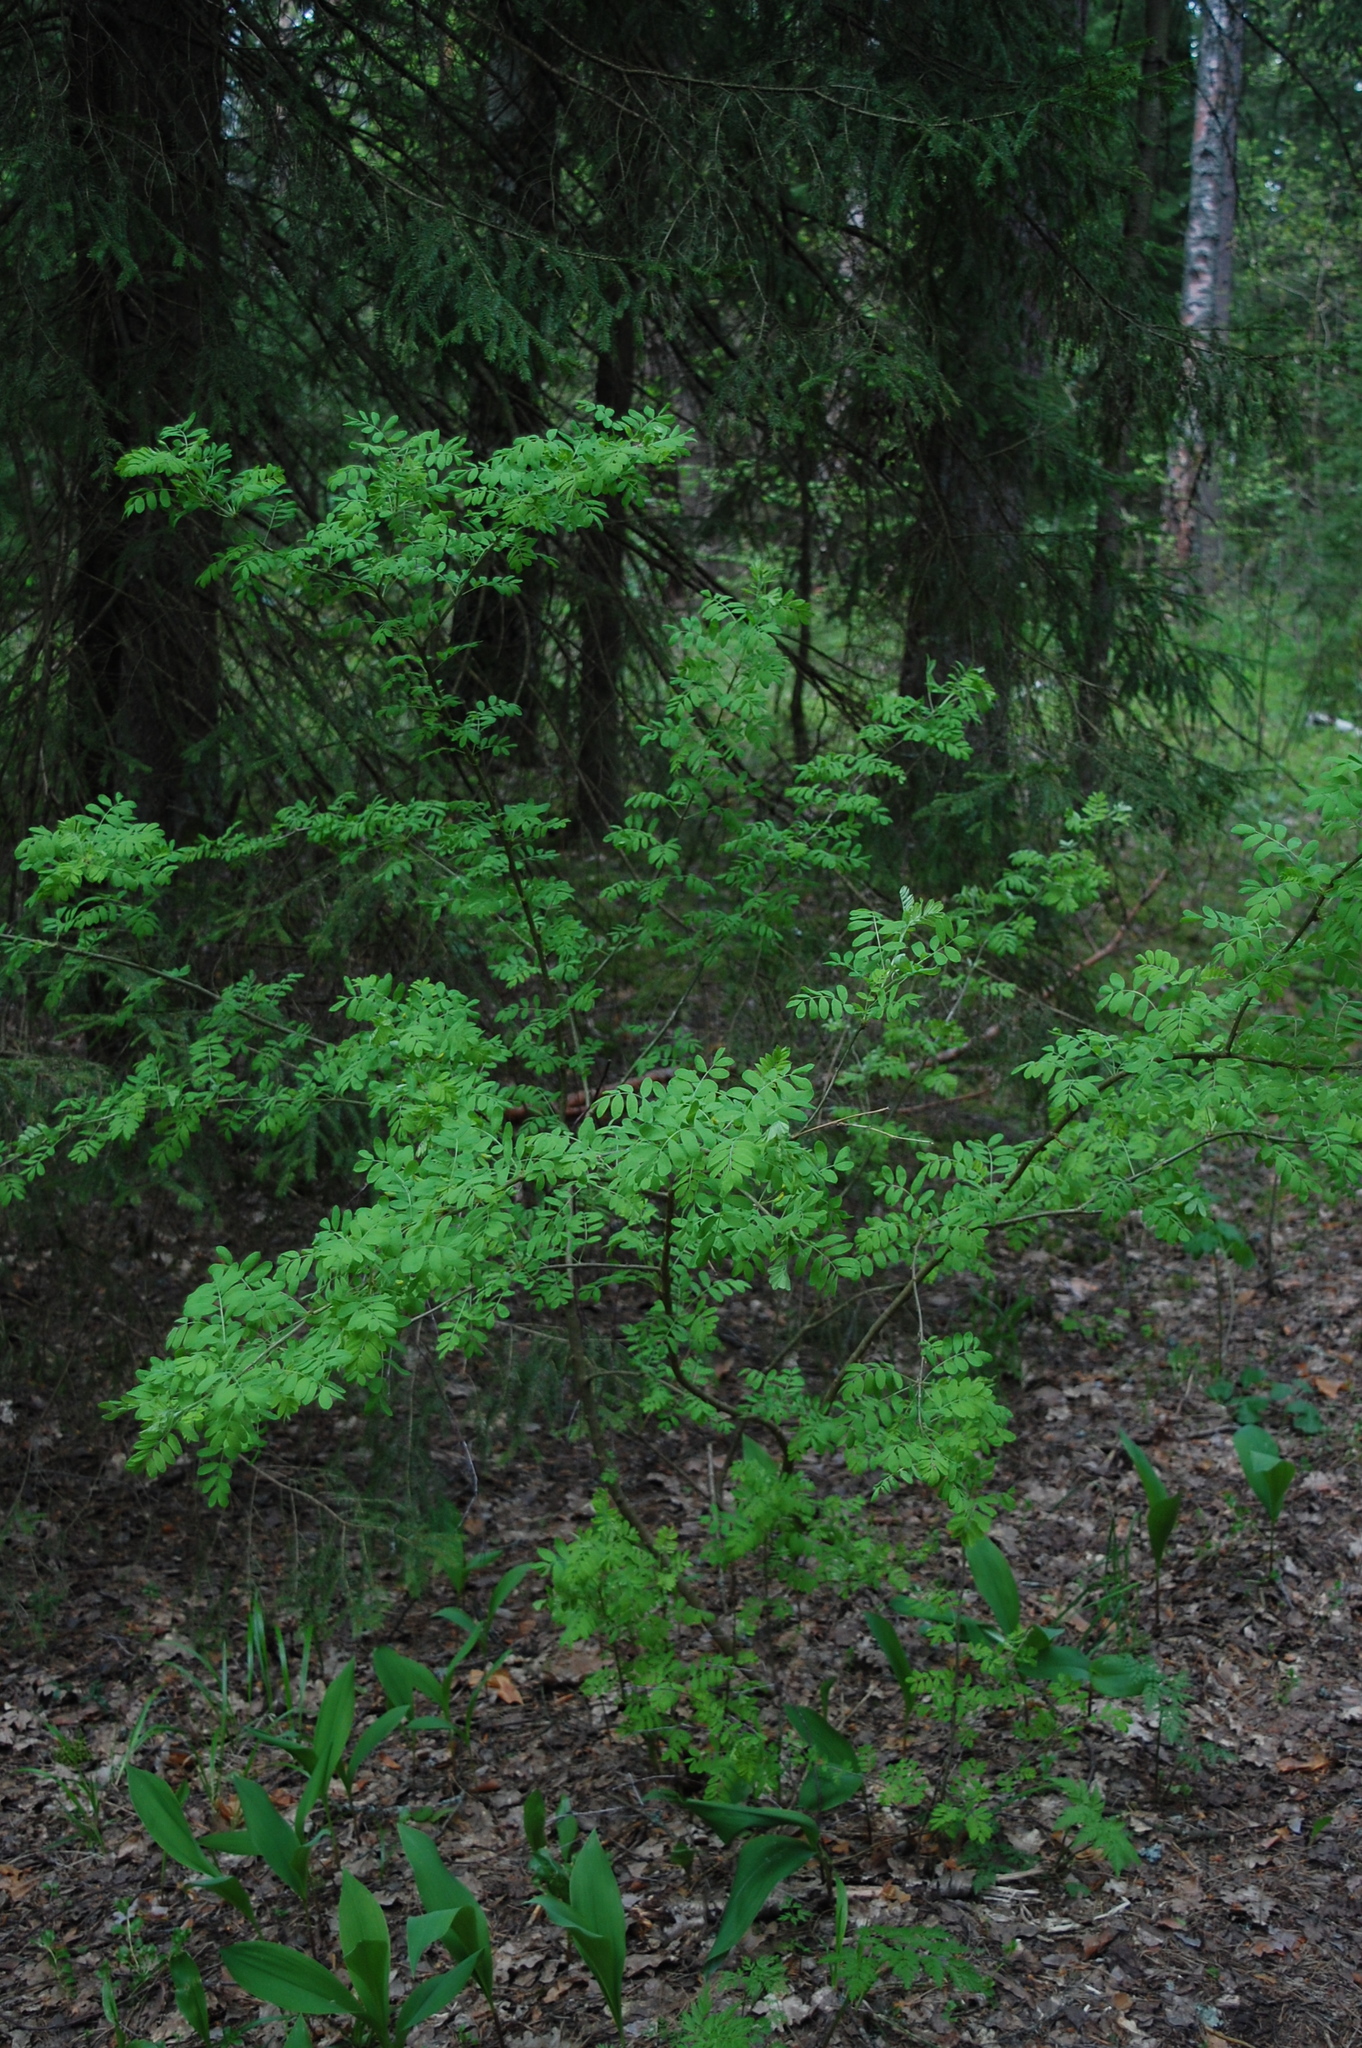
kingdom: Plantae
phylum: Tracheophyta
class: Magnoliopsida
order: Fabales
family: Fabaceae
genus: Caragana
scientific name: Caragana arborescens
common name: Siberian peashrub
